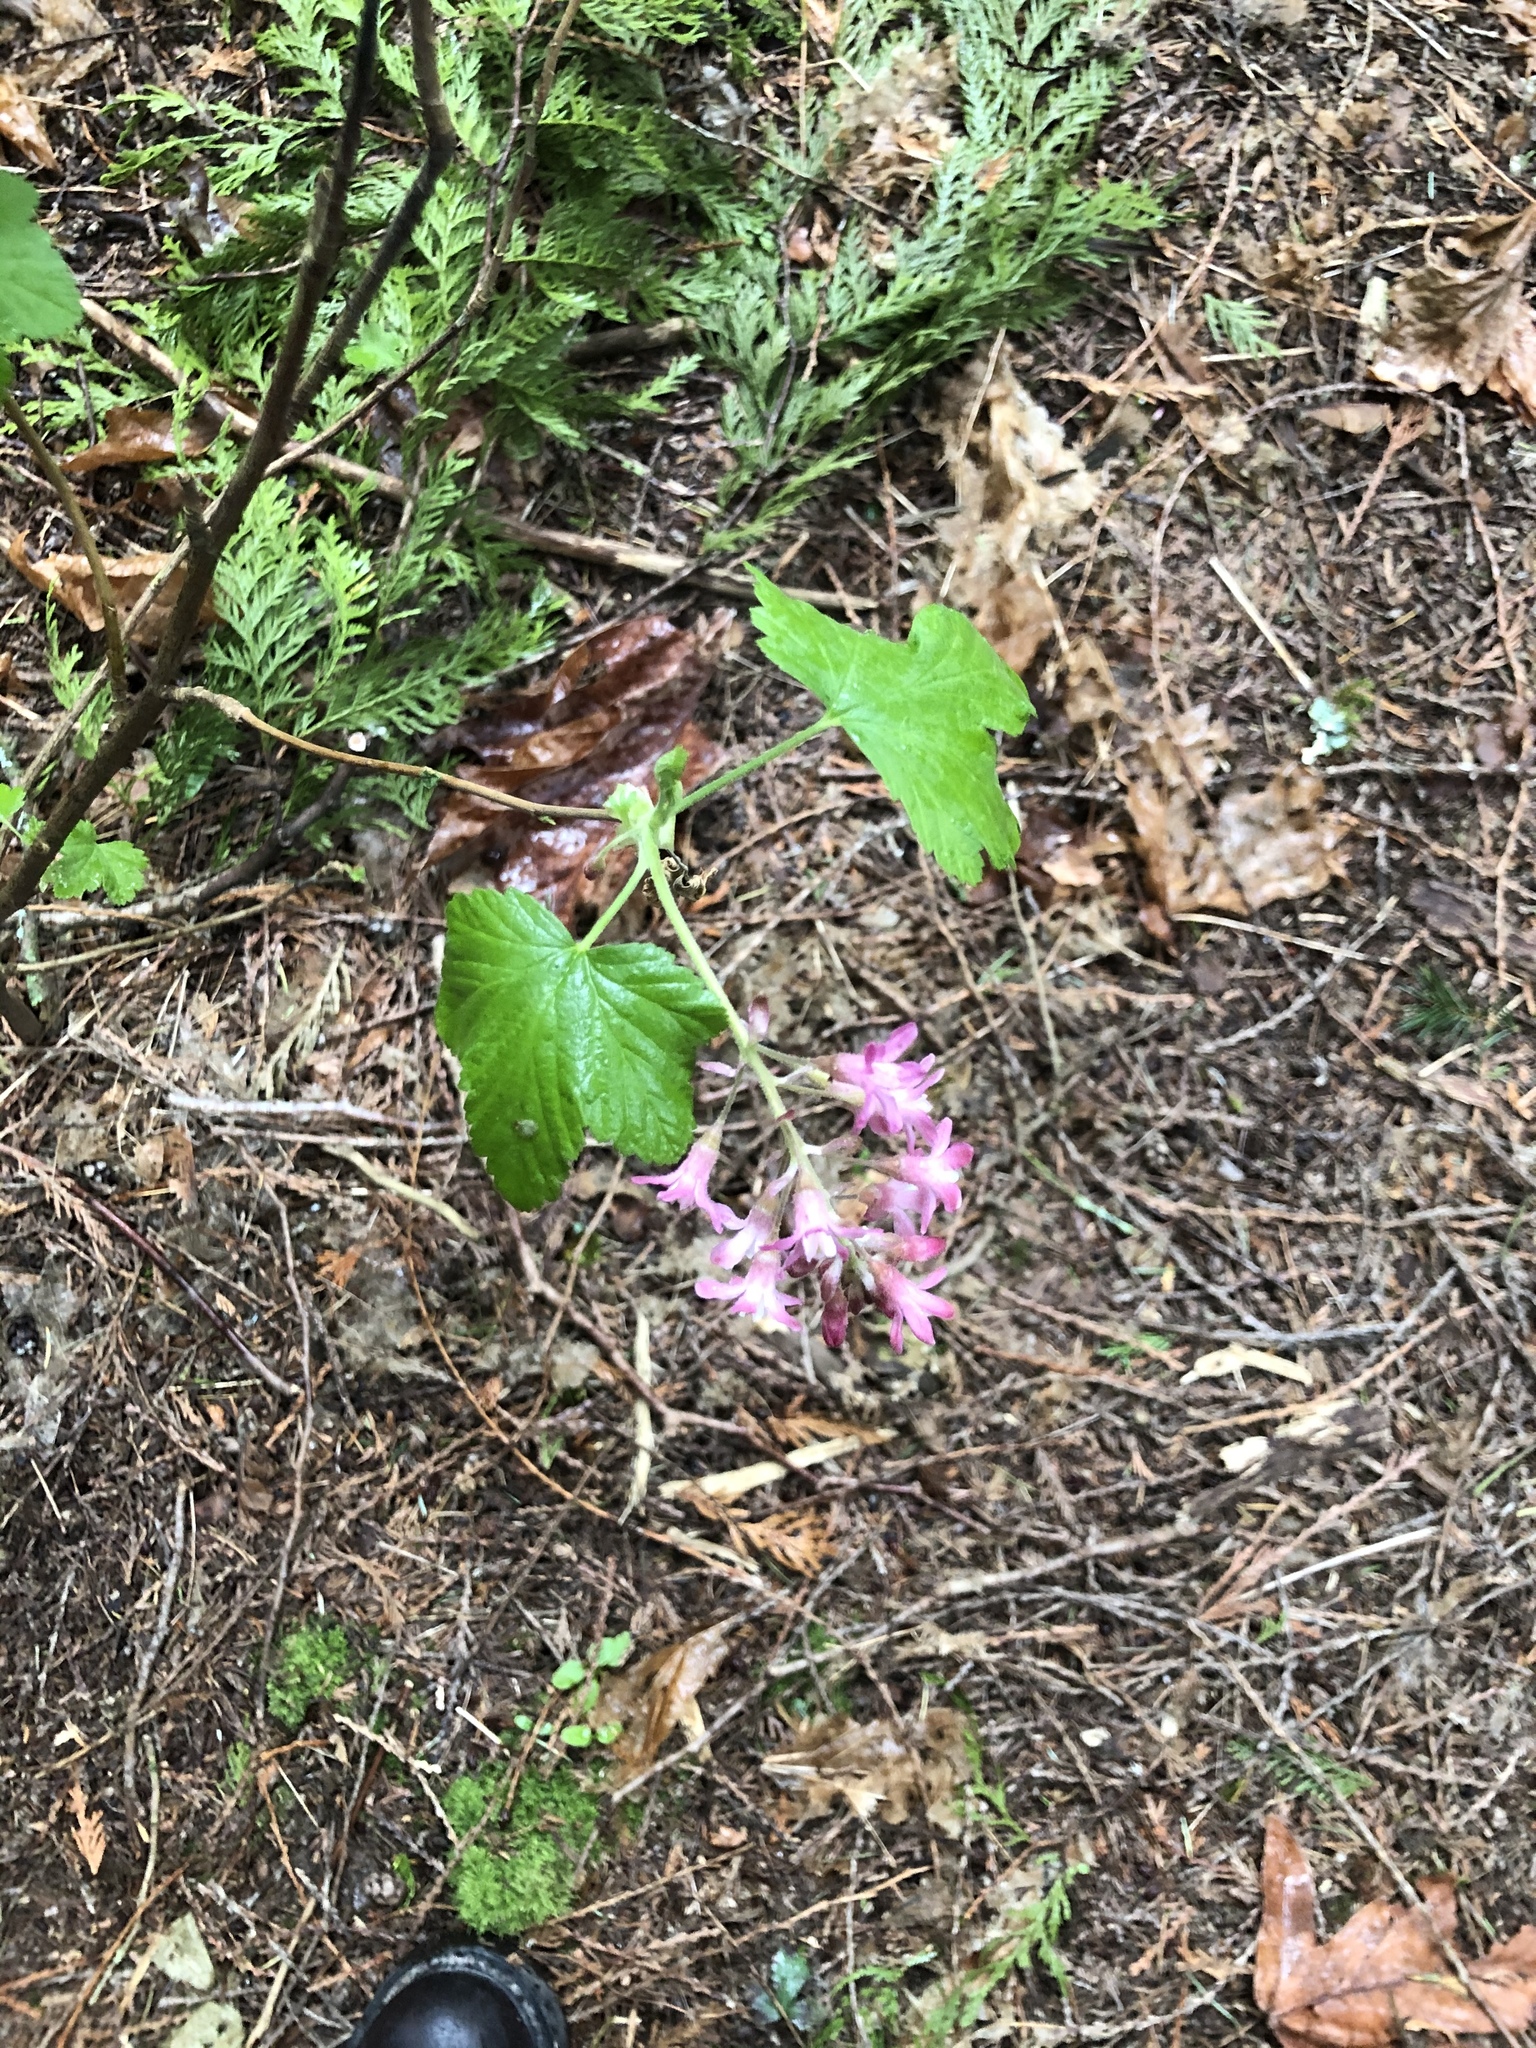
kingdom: Plantae
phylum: Tracheophyta
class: Magnoliopsida
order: Saxifragales
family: Grossulariaceae
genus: Ribes
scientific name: Ribes sanguineum
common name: Flowering currant
